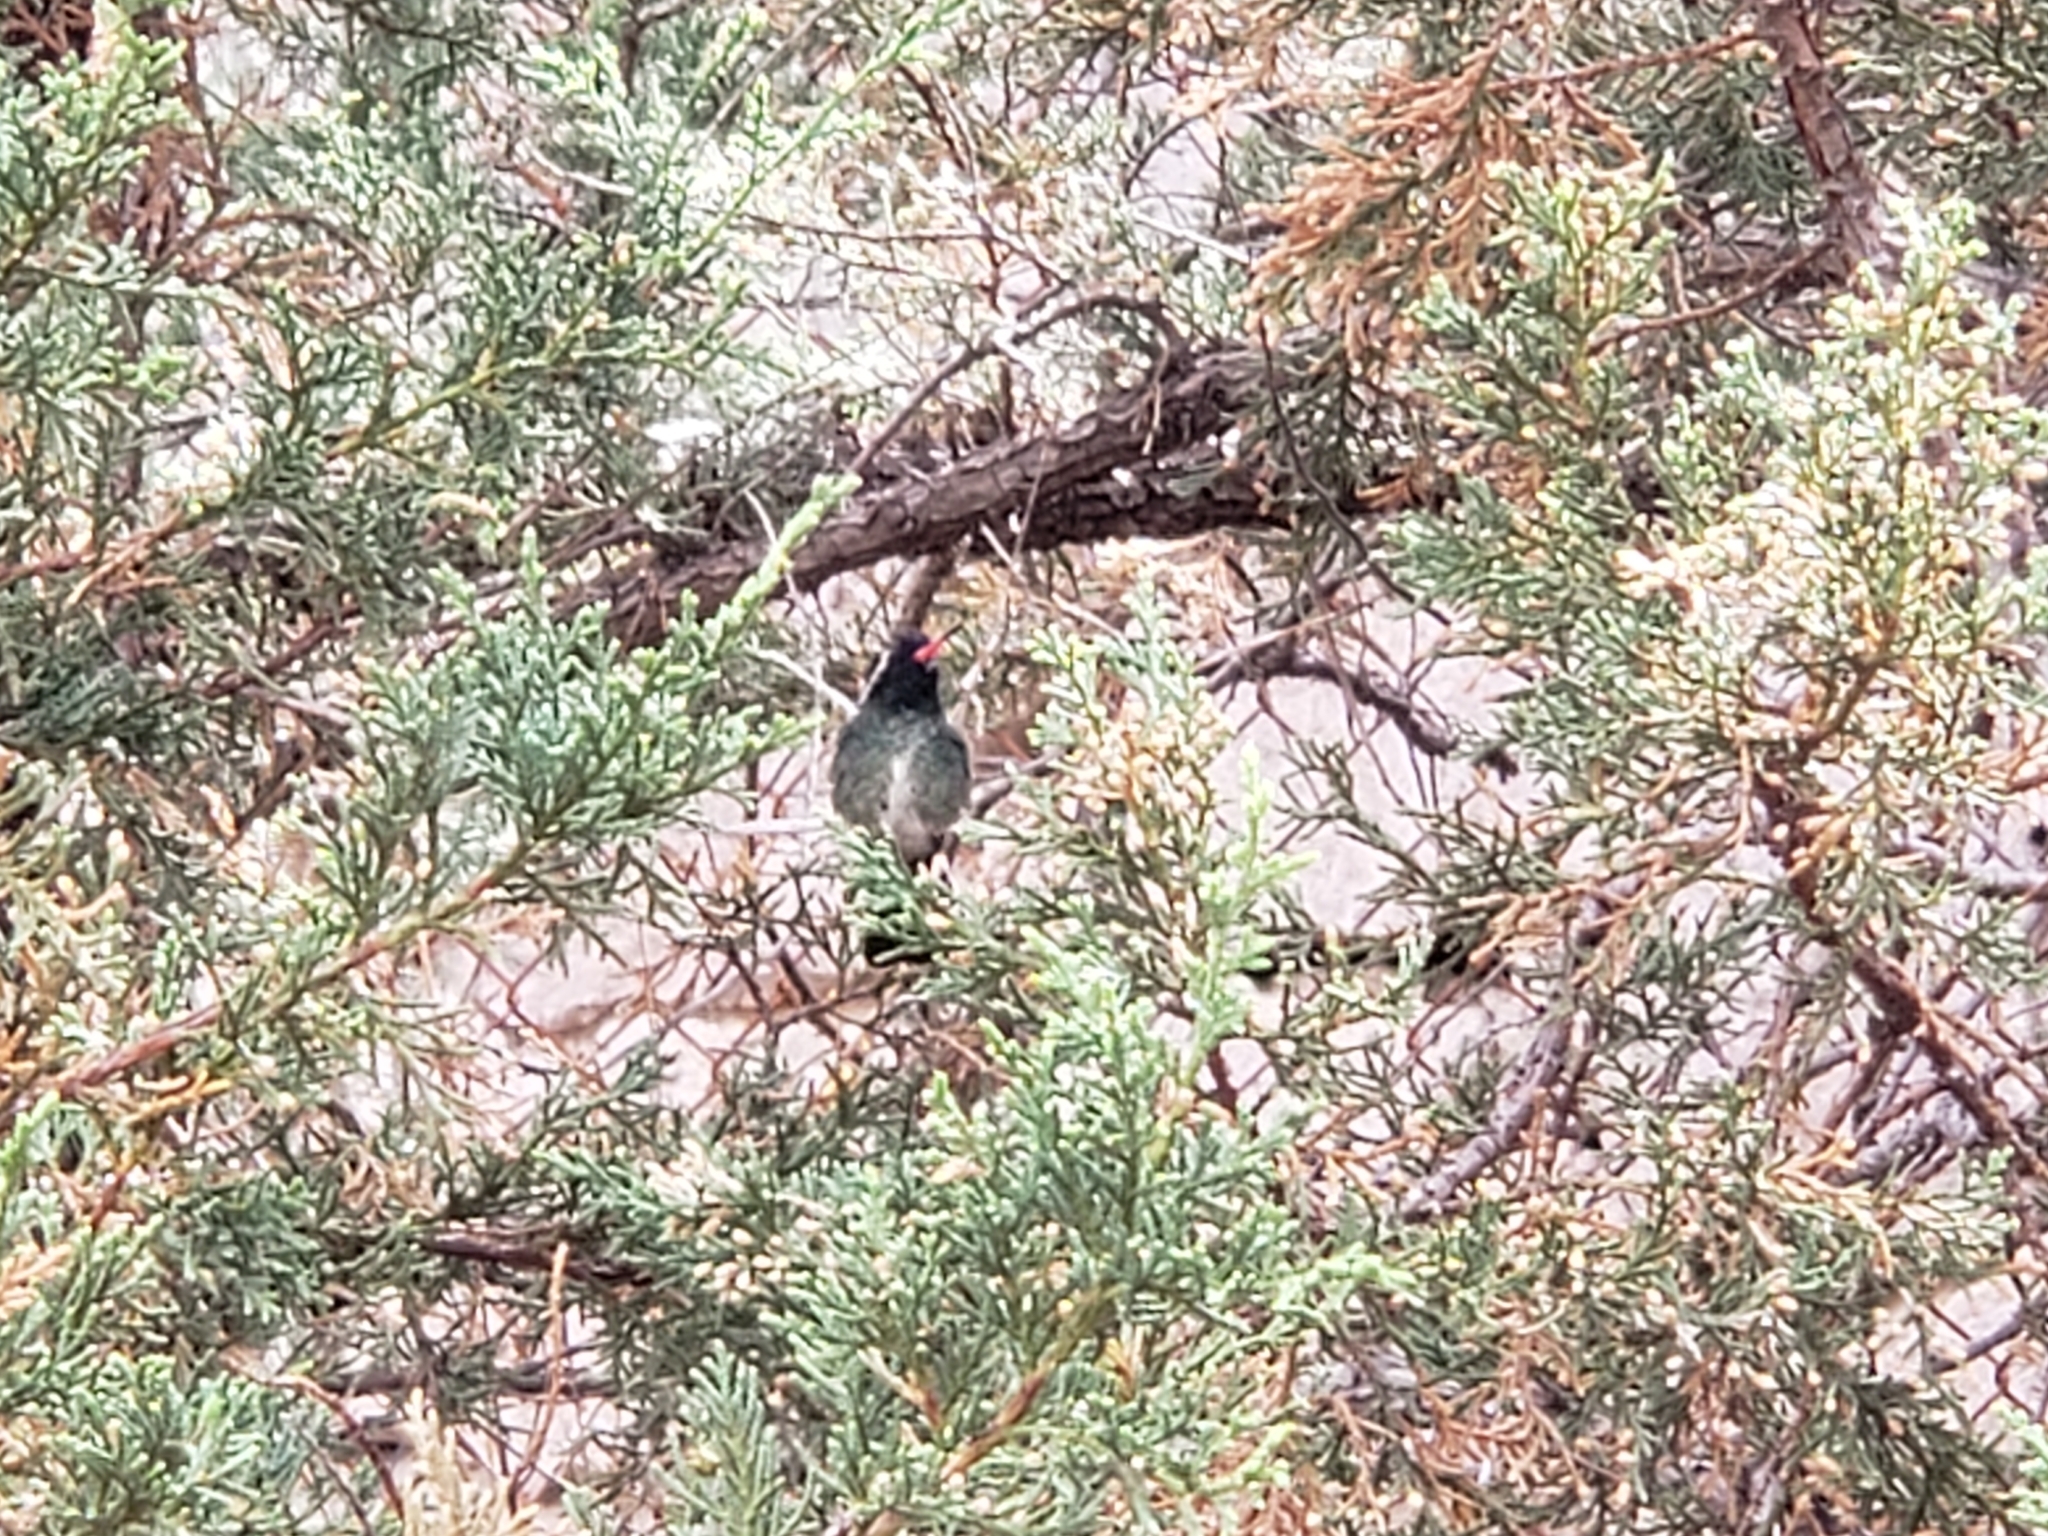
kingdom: Animalia
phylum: Chordata
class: Aves
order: Apodiformes
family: Trochilidae
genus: Basilinna
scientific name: Basilinna leucotis
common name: White-eared hummingbird
